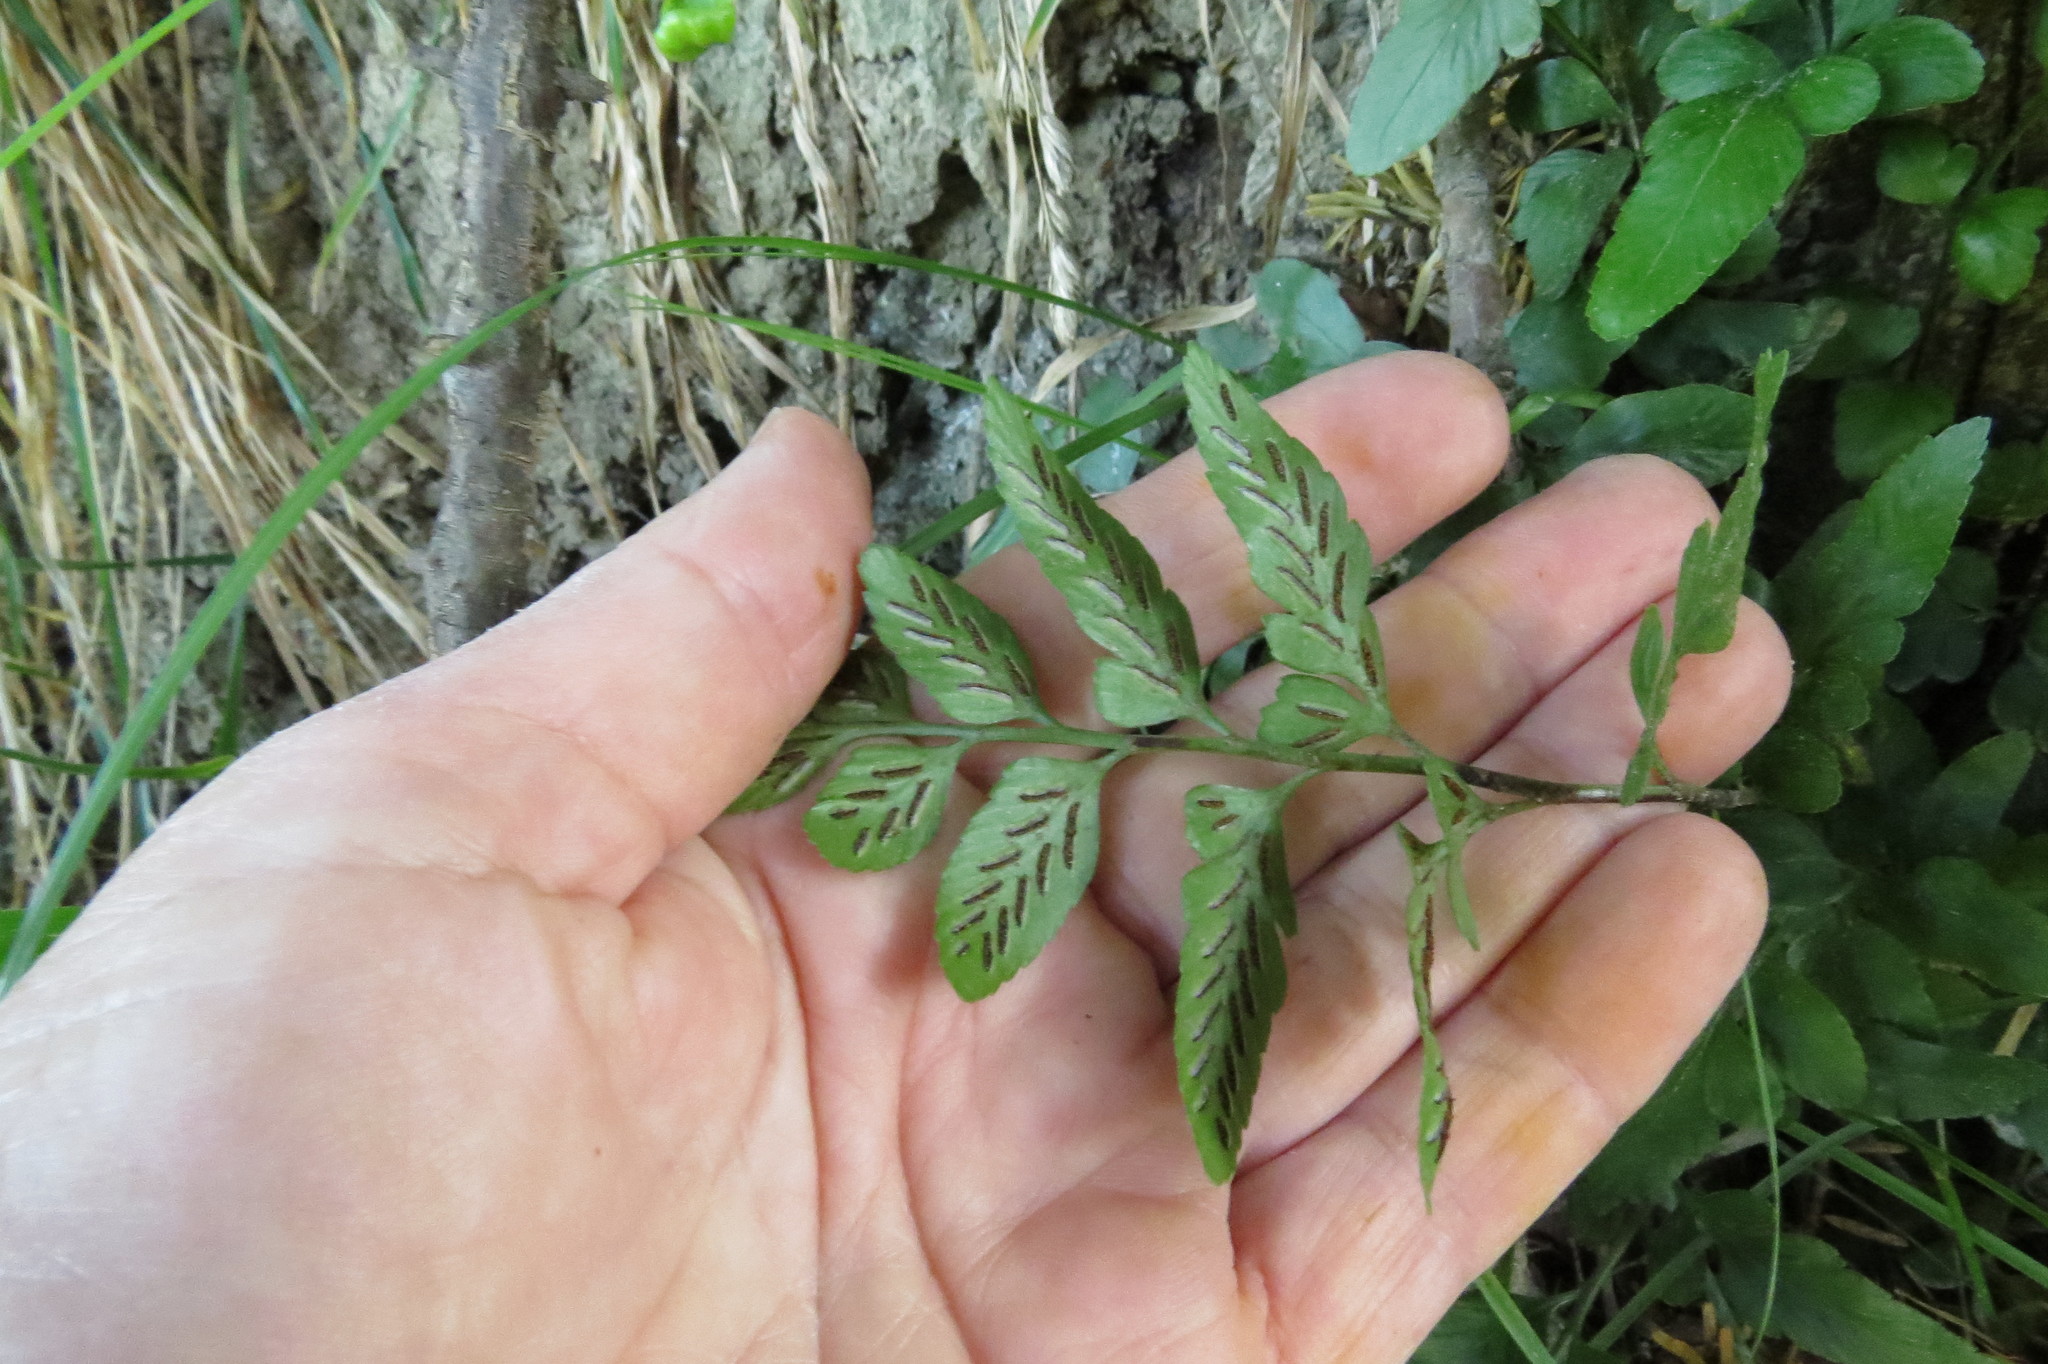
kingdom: Plantae
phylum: Tracheophyta
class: Polypodiopsida
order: Polypodiales
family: Aspleniaceae
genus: Asplenium
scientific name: Asplenium lyallii
